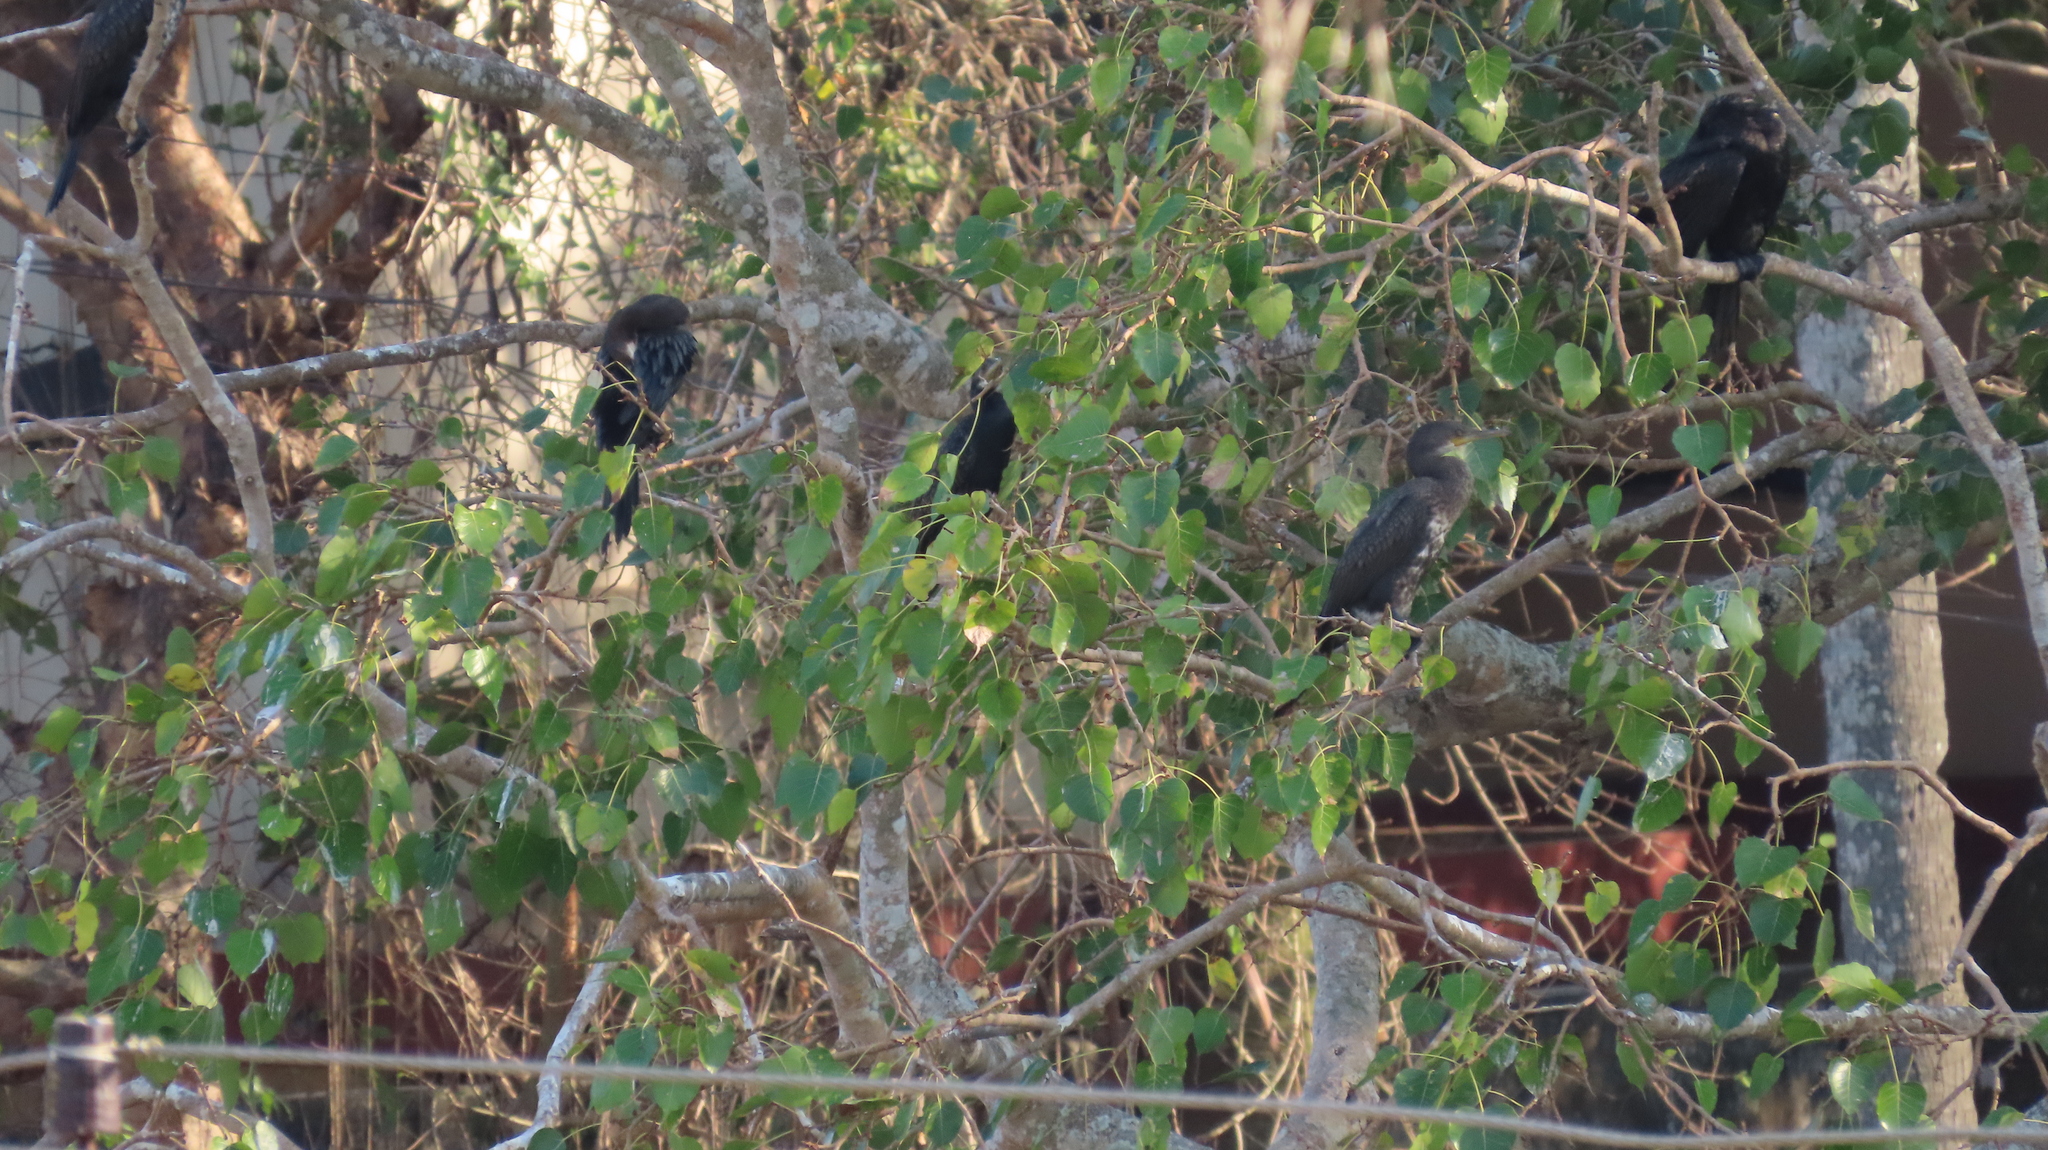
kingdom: Animalia
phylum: Chordata
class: Aves
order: Suliformes
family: Phalacrocoracidae
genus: Phalacrocorax
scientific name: Phalacrocorax fuscicollis
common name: Indian cormorant
